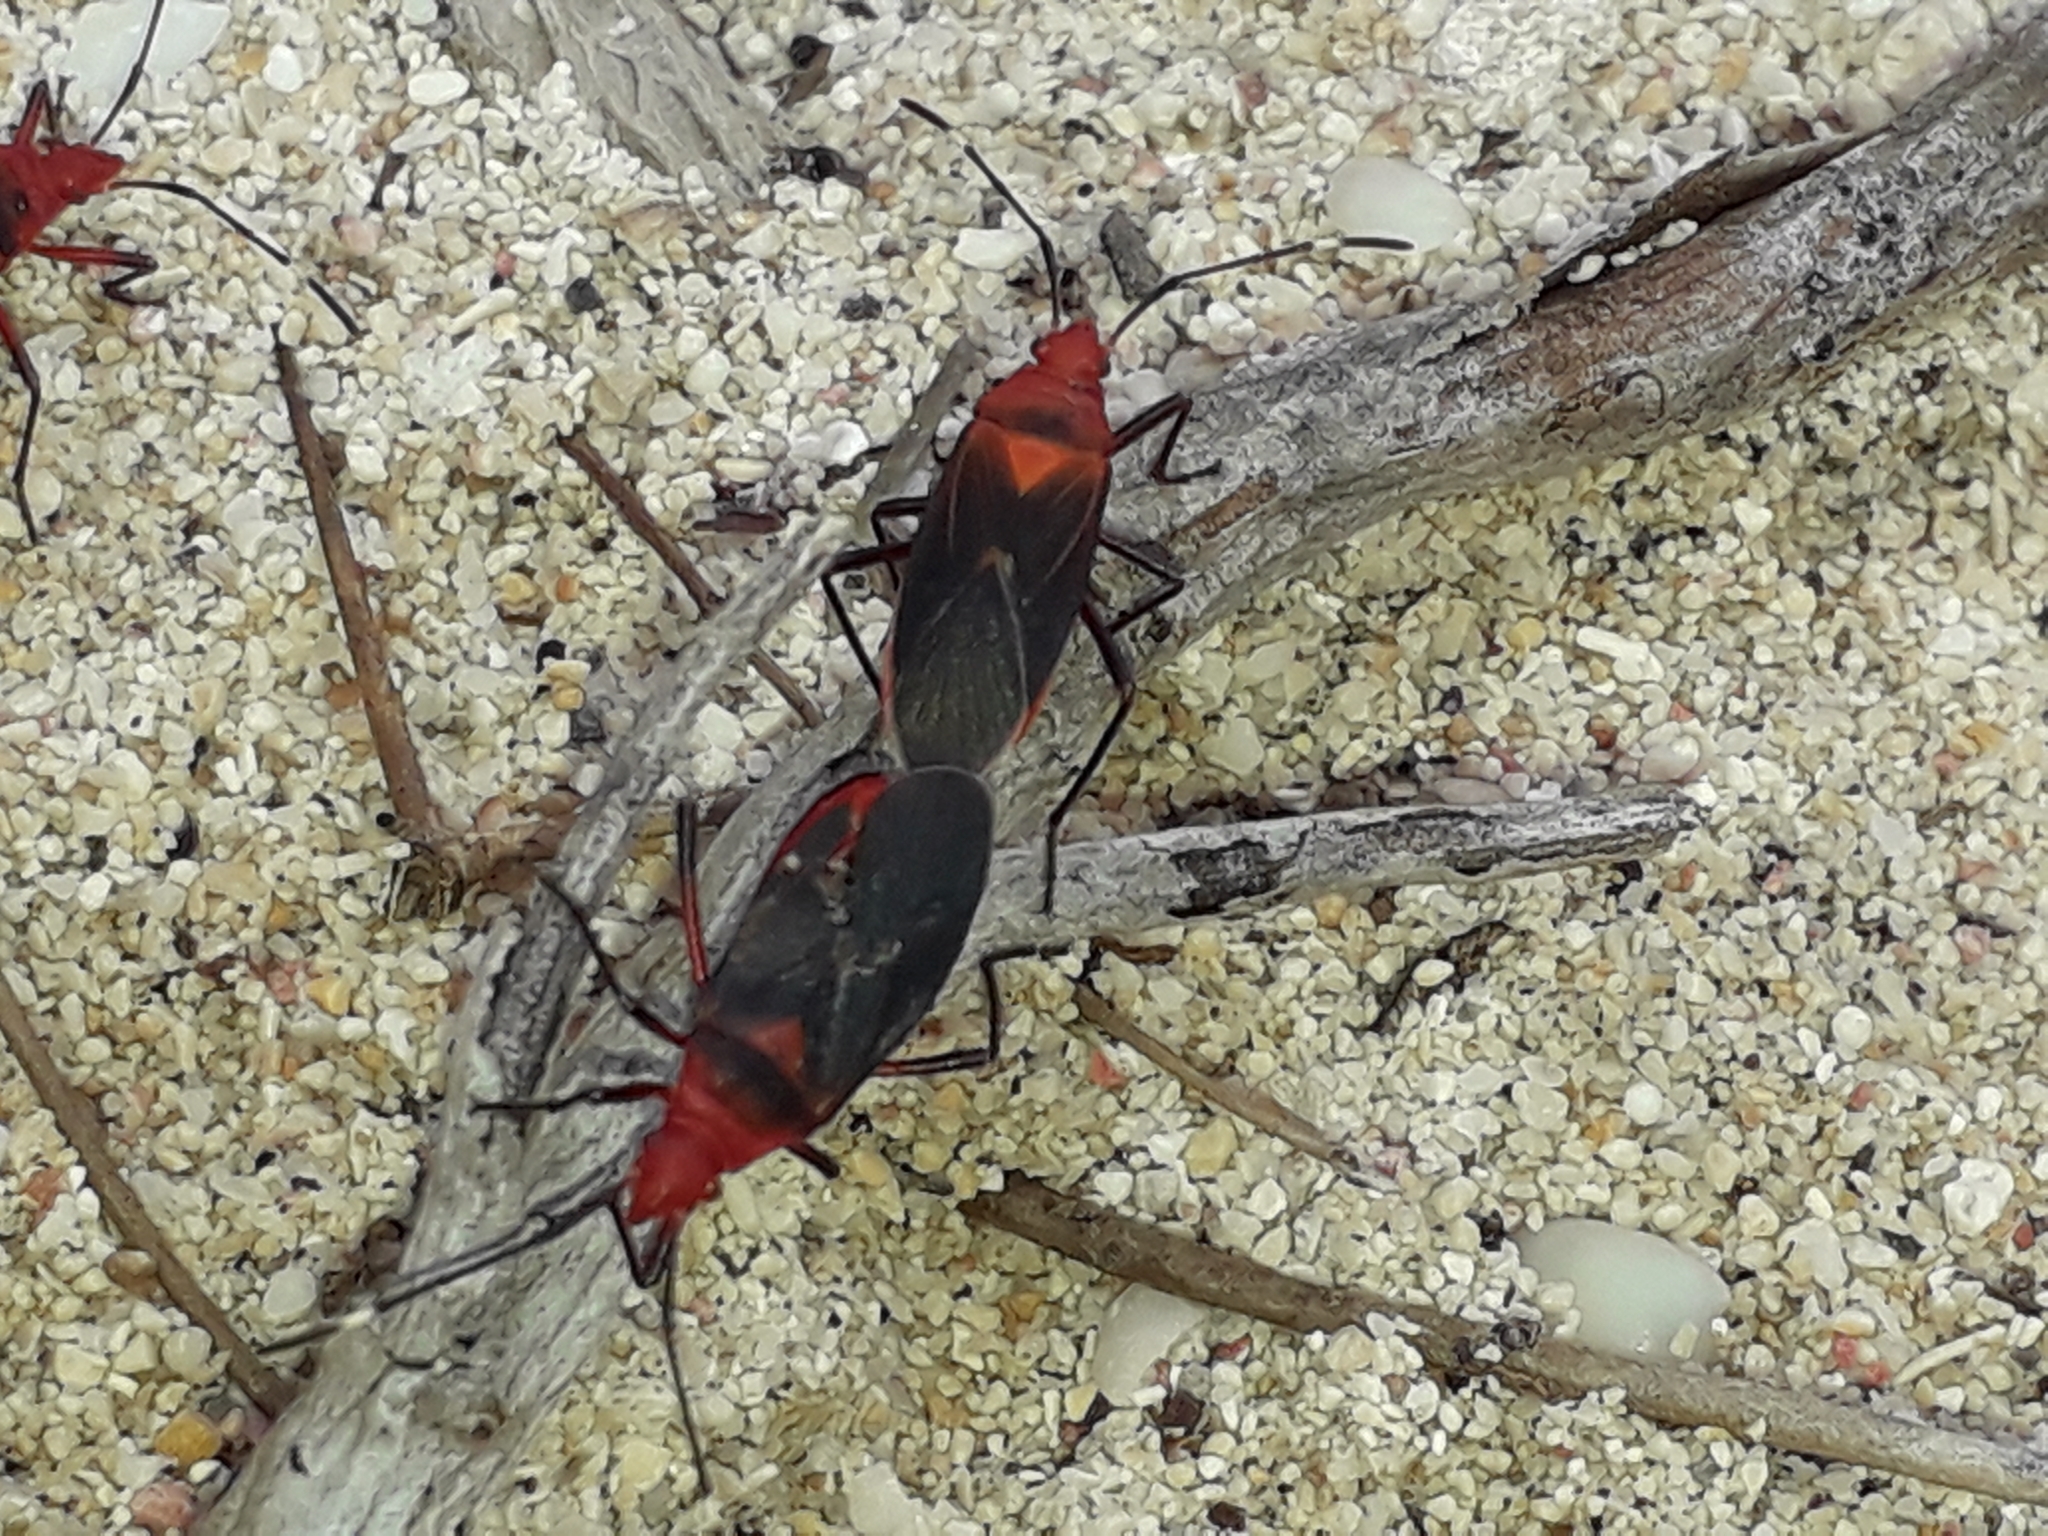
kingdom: Animalia
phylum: Arthropoda
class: Insecta
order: Hemiptera
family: Pyrrhocoridae
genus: Dysdercus
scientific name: Dysdercus fulvoniger
